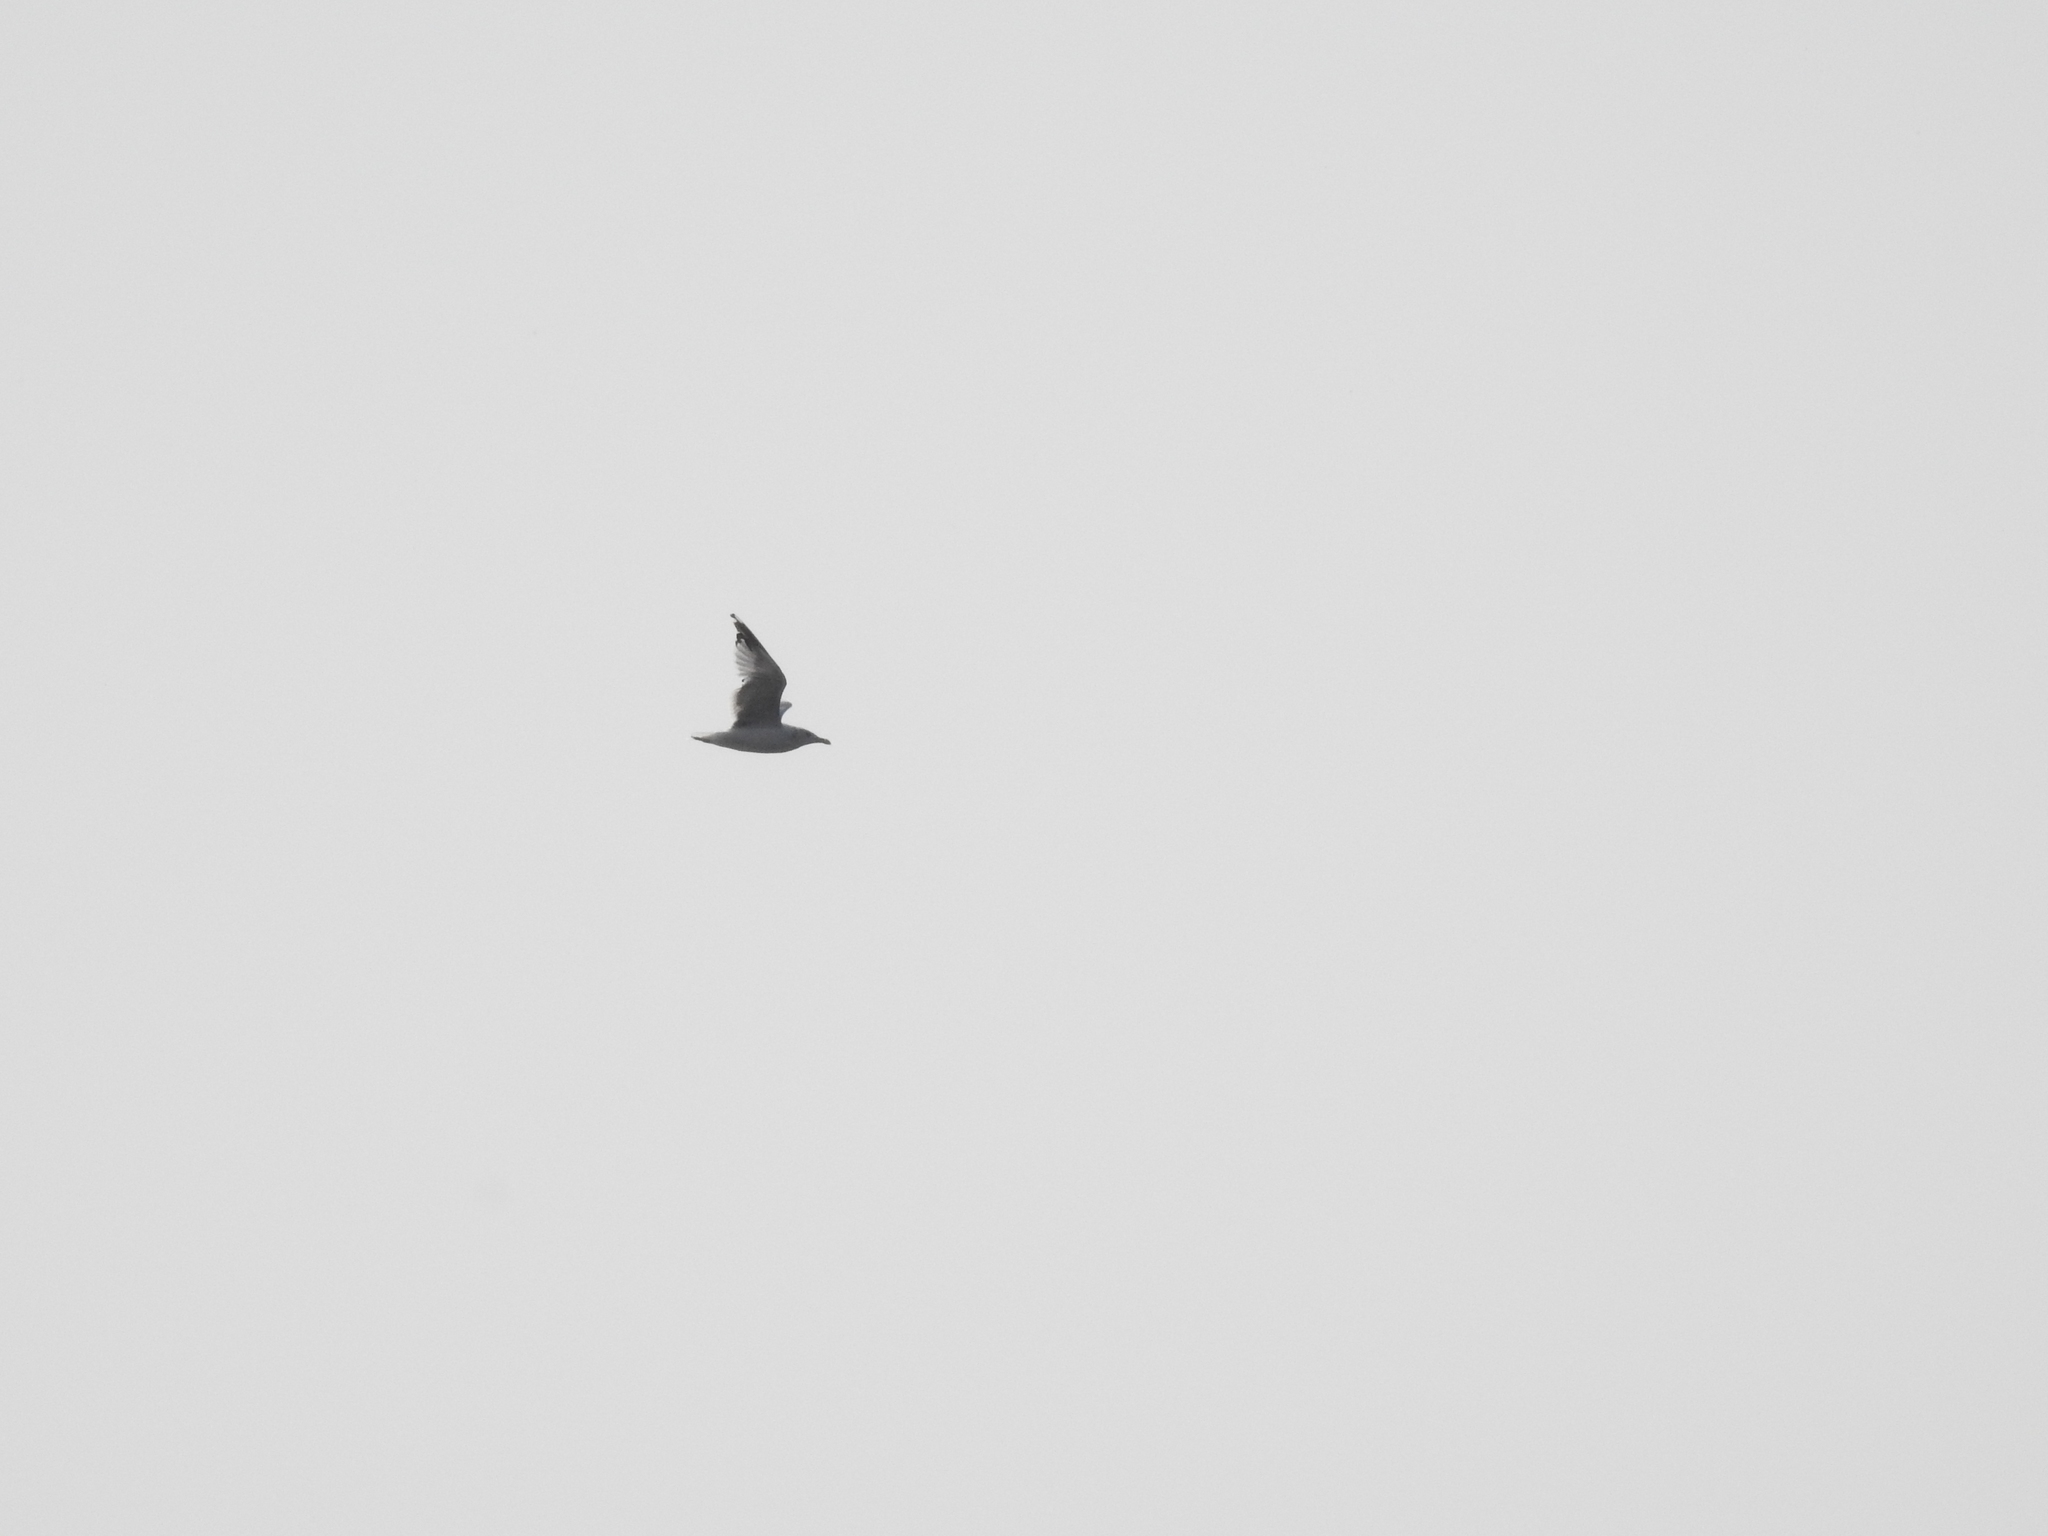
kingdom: Animalia
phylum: Chordata
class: Aves
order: Charadriiformes
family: Laridae
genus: Larus
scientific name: Larus argentatus
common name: Herring gull
